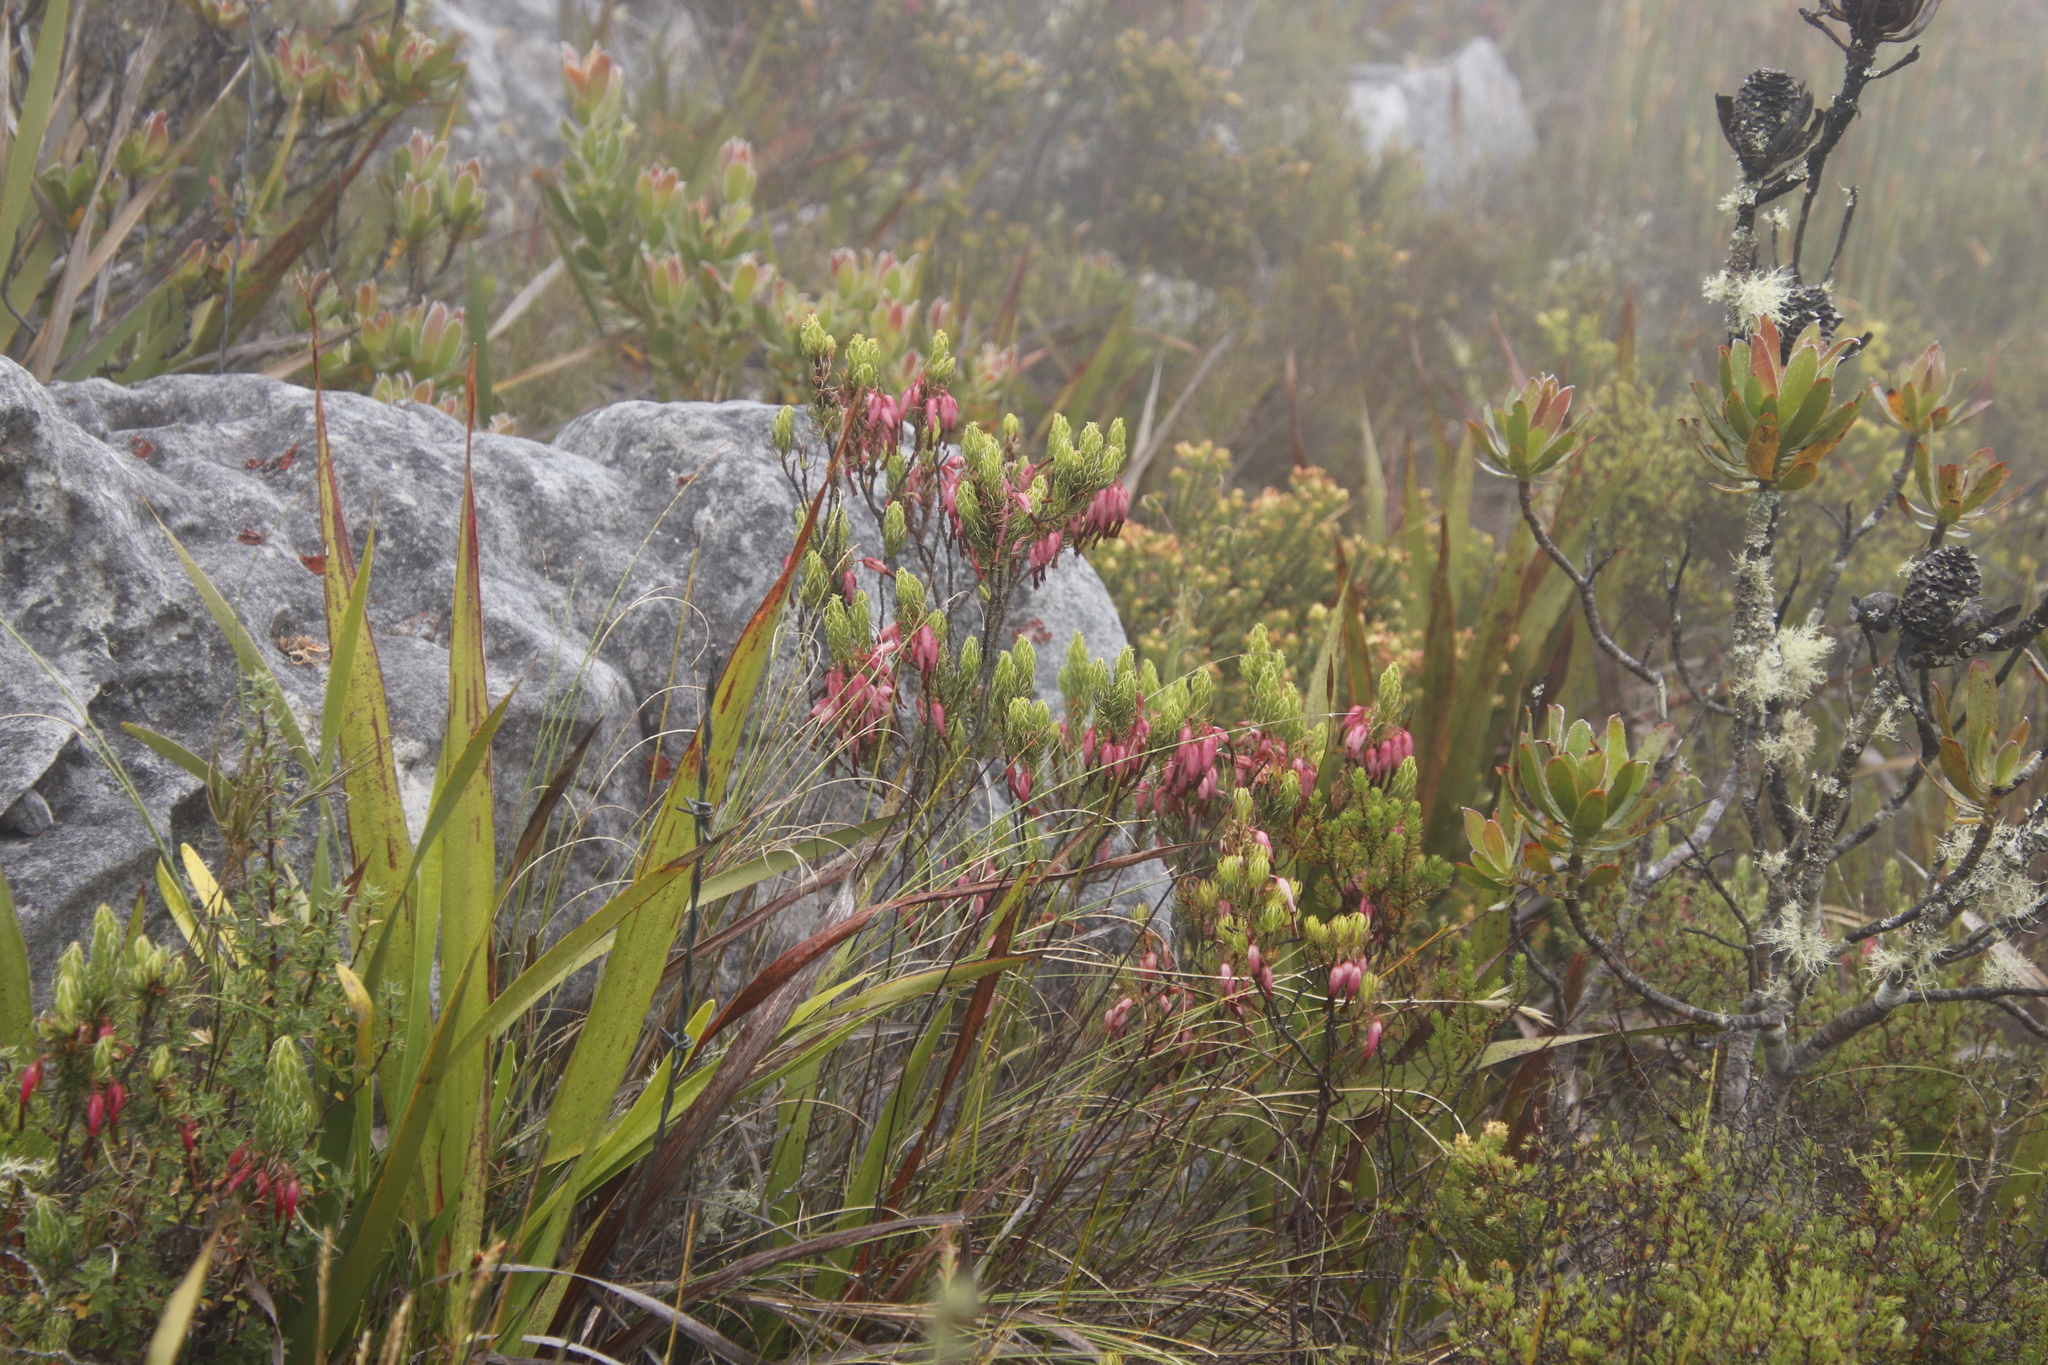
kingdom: Plantae
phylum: Tracheophyta
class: Magnoliopsida
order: Ericales
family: Ericaceae
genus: Erica
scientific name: Erica plukenetii
